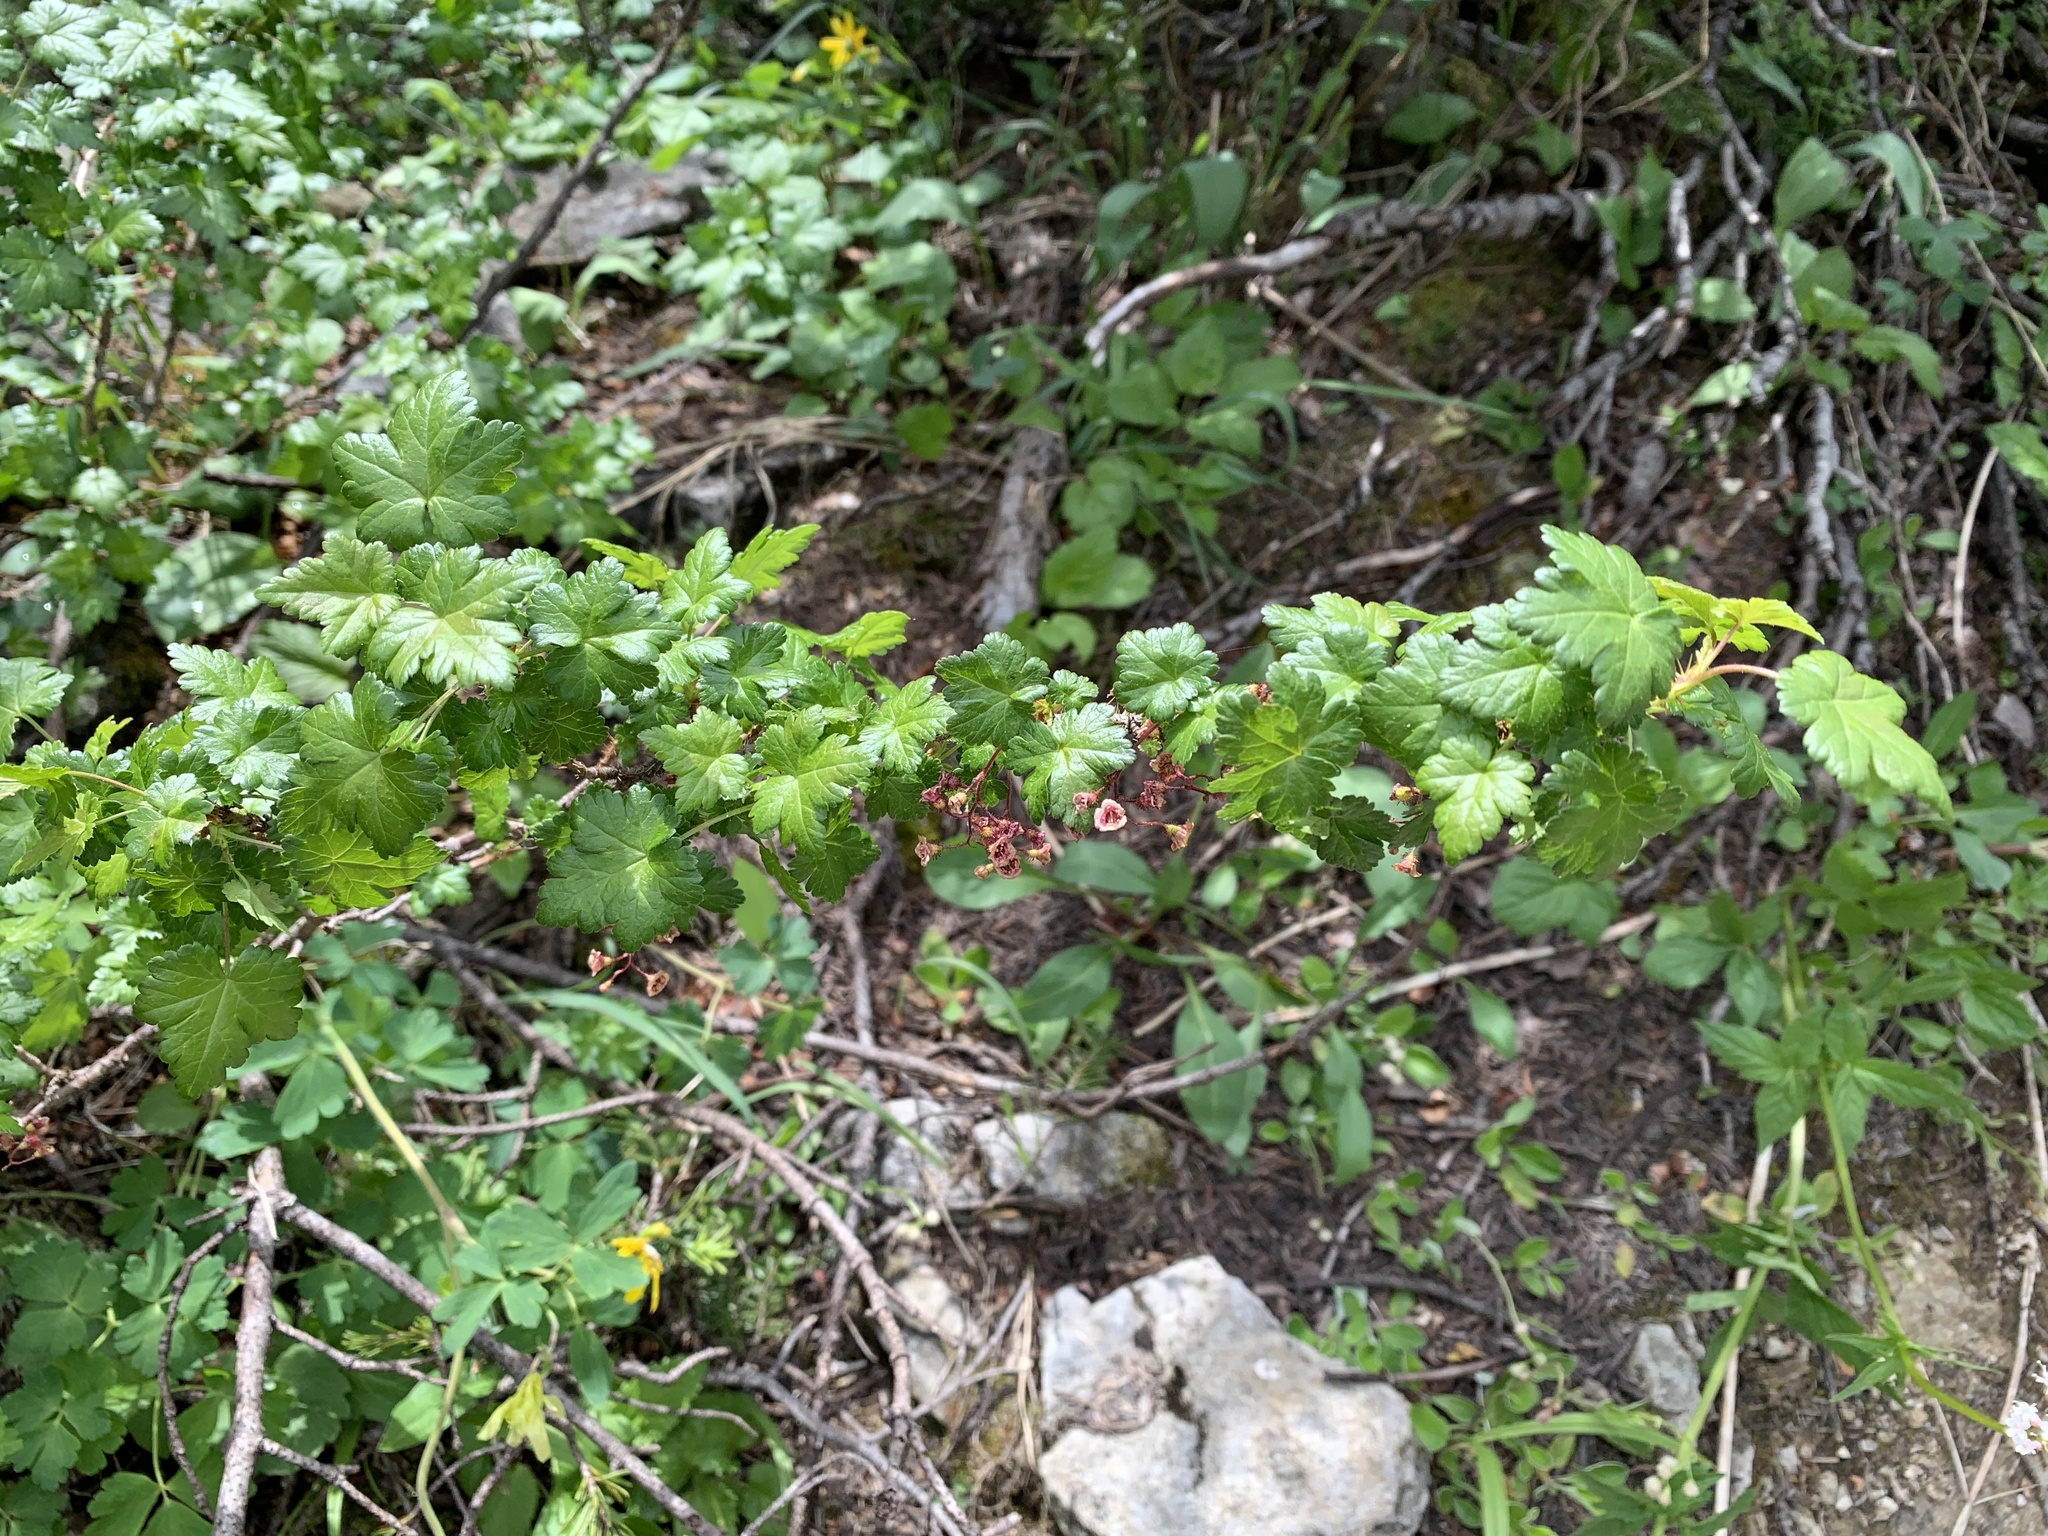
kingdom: Plantae
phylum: Tracheophyta
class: Magnoliopsida
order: Saxifragales
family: Grossulariaceae
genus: Ribes
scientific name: Ribes lacustre
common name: Black gooseberry
